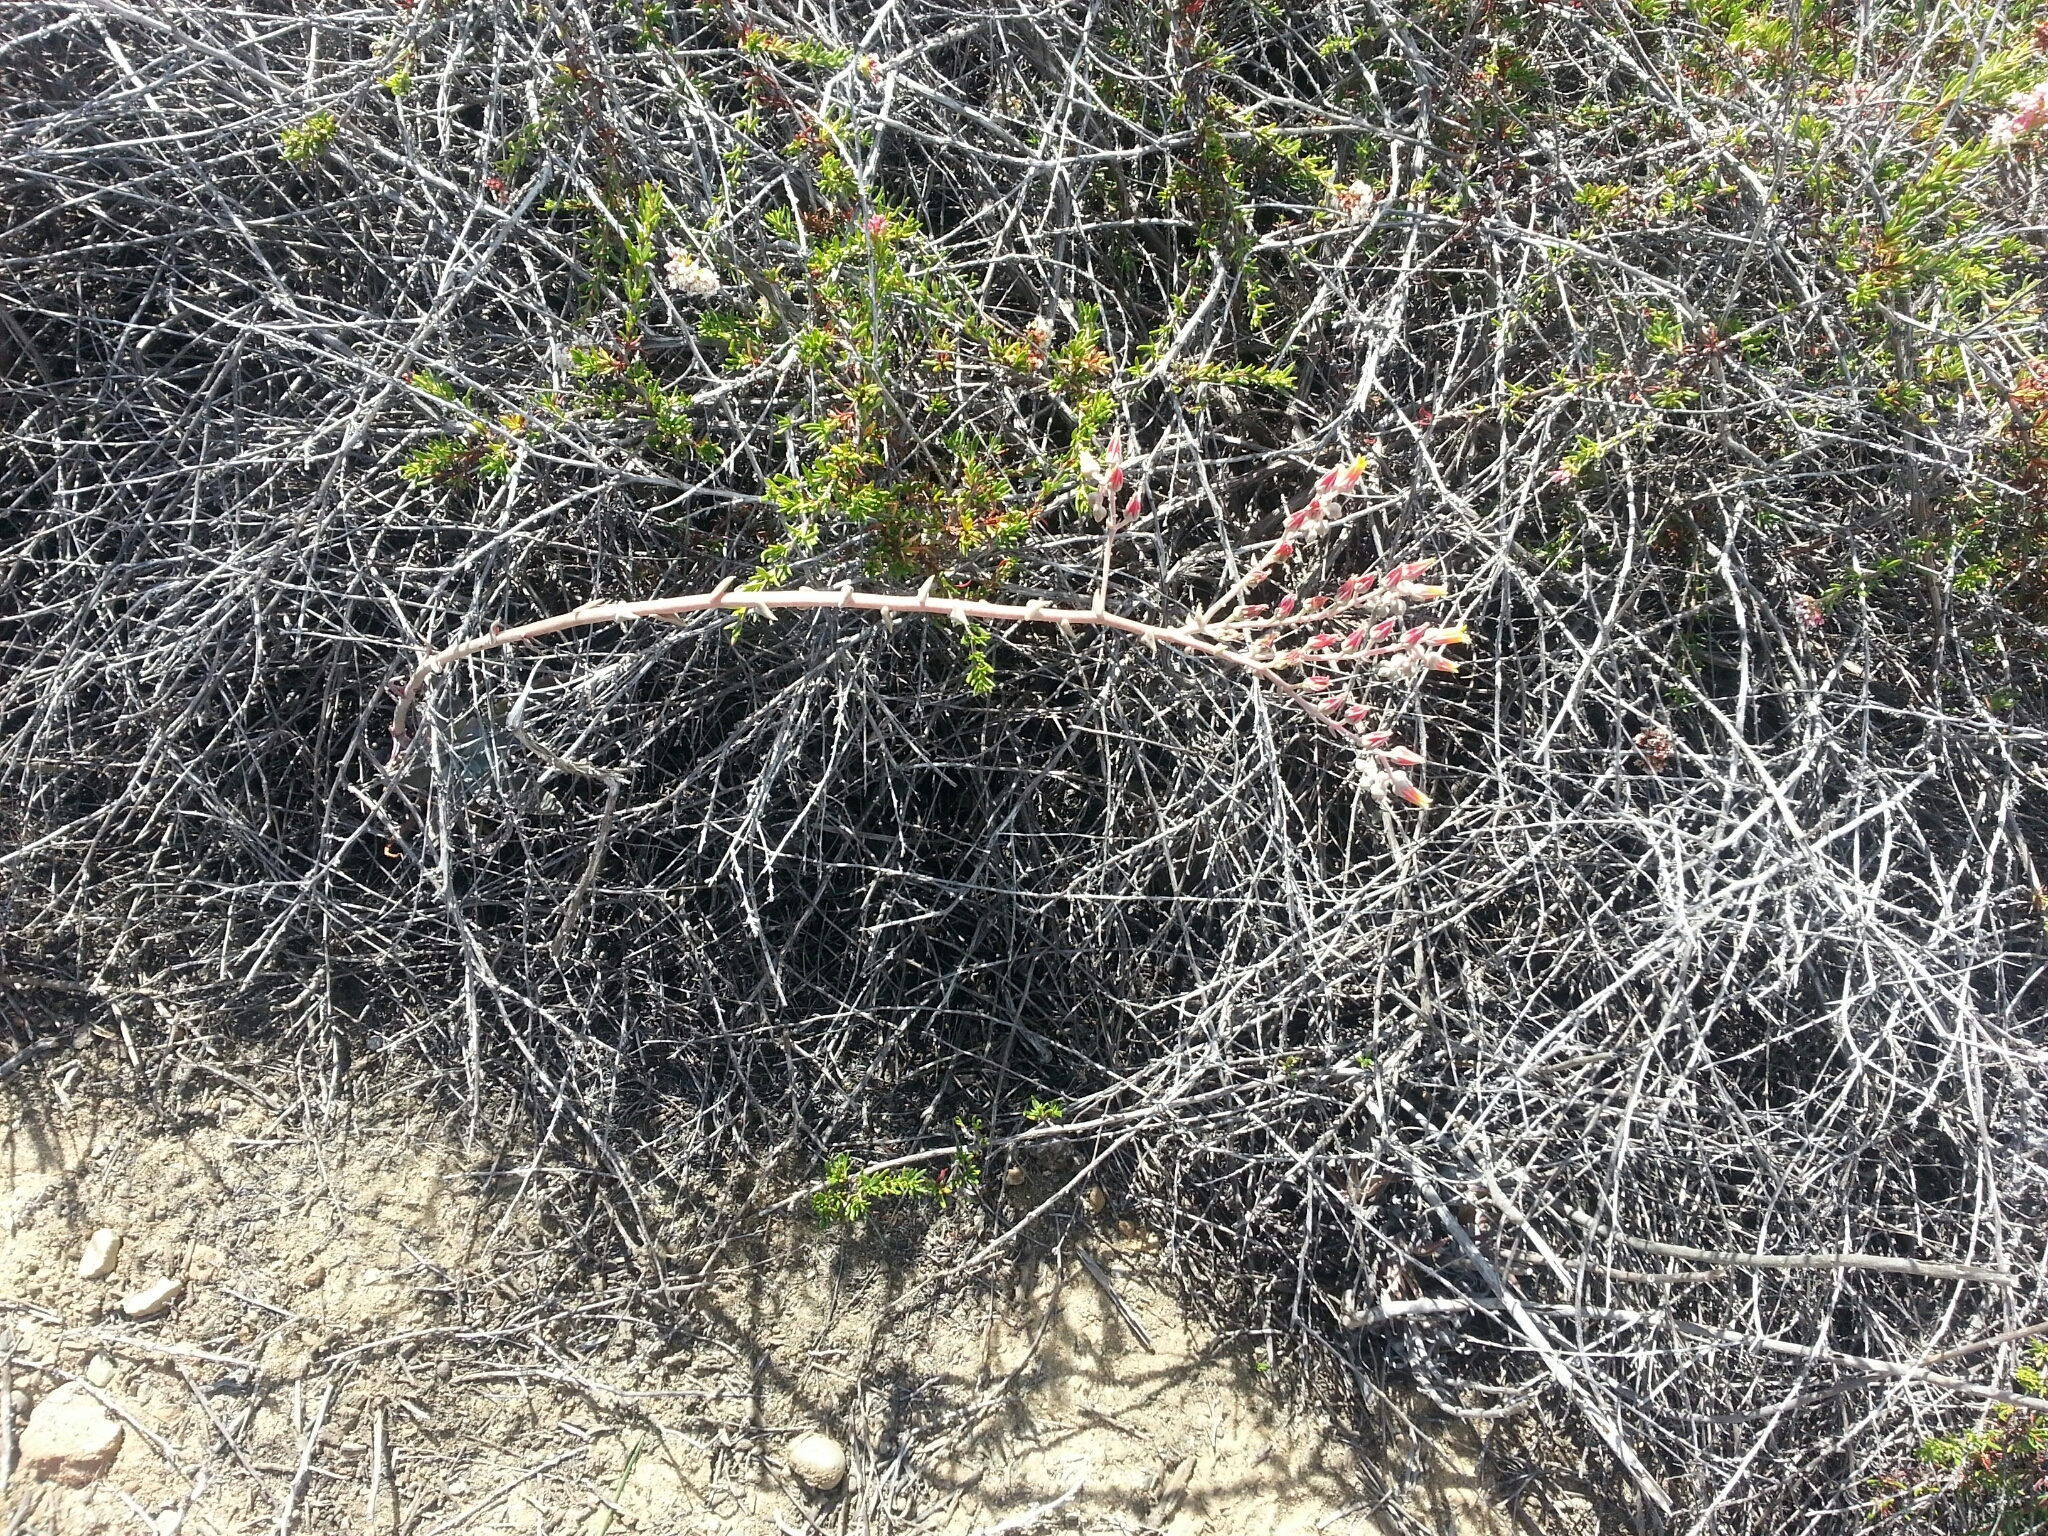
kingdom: Plantae
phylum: Tracheophyta
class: Magnoliopsida
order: Saxifragales
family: Crassulaceae
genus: Dudleya
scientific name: Dudleya lanceolata
